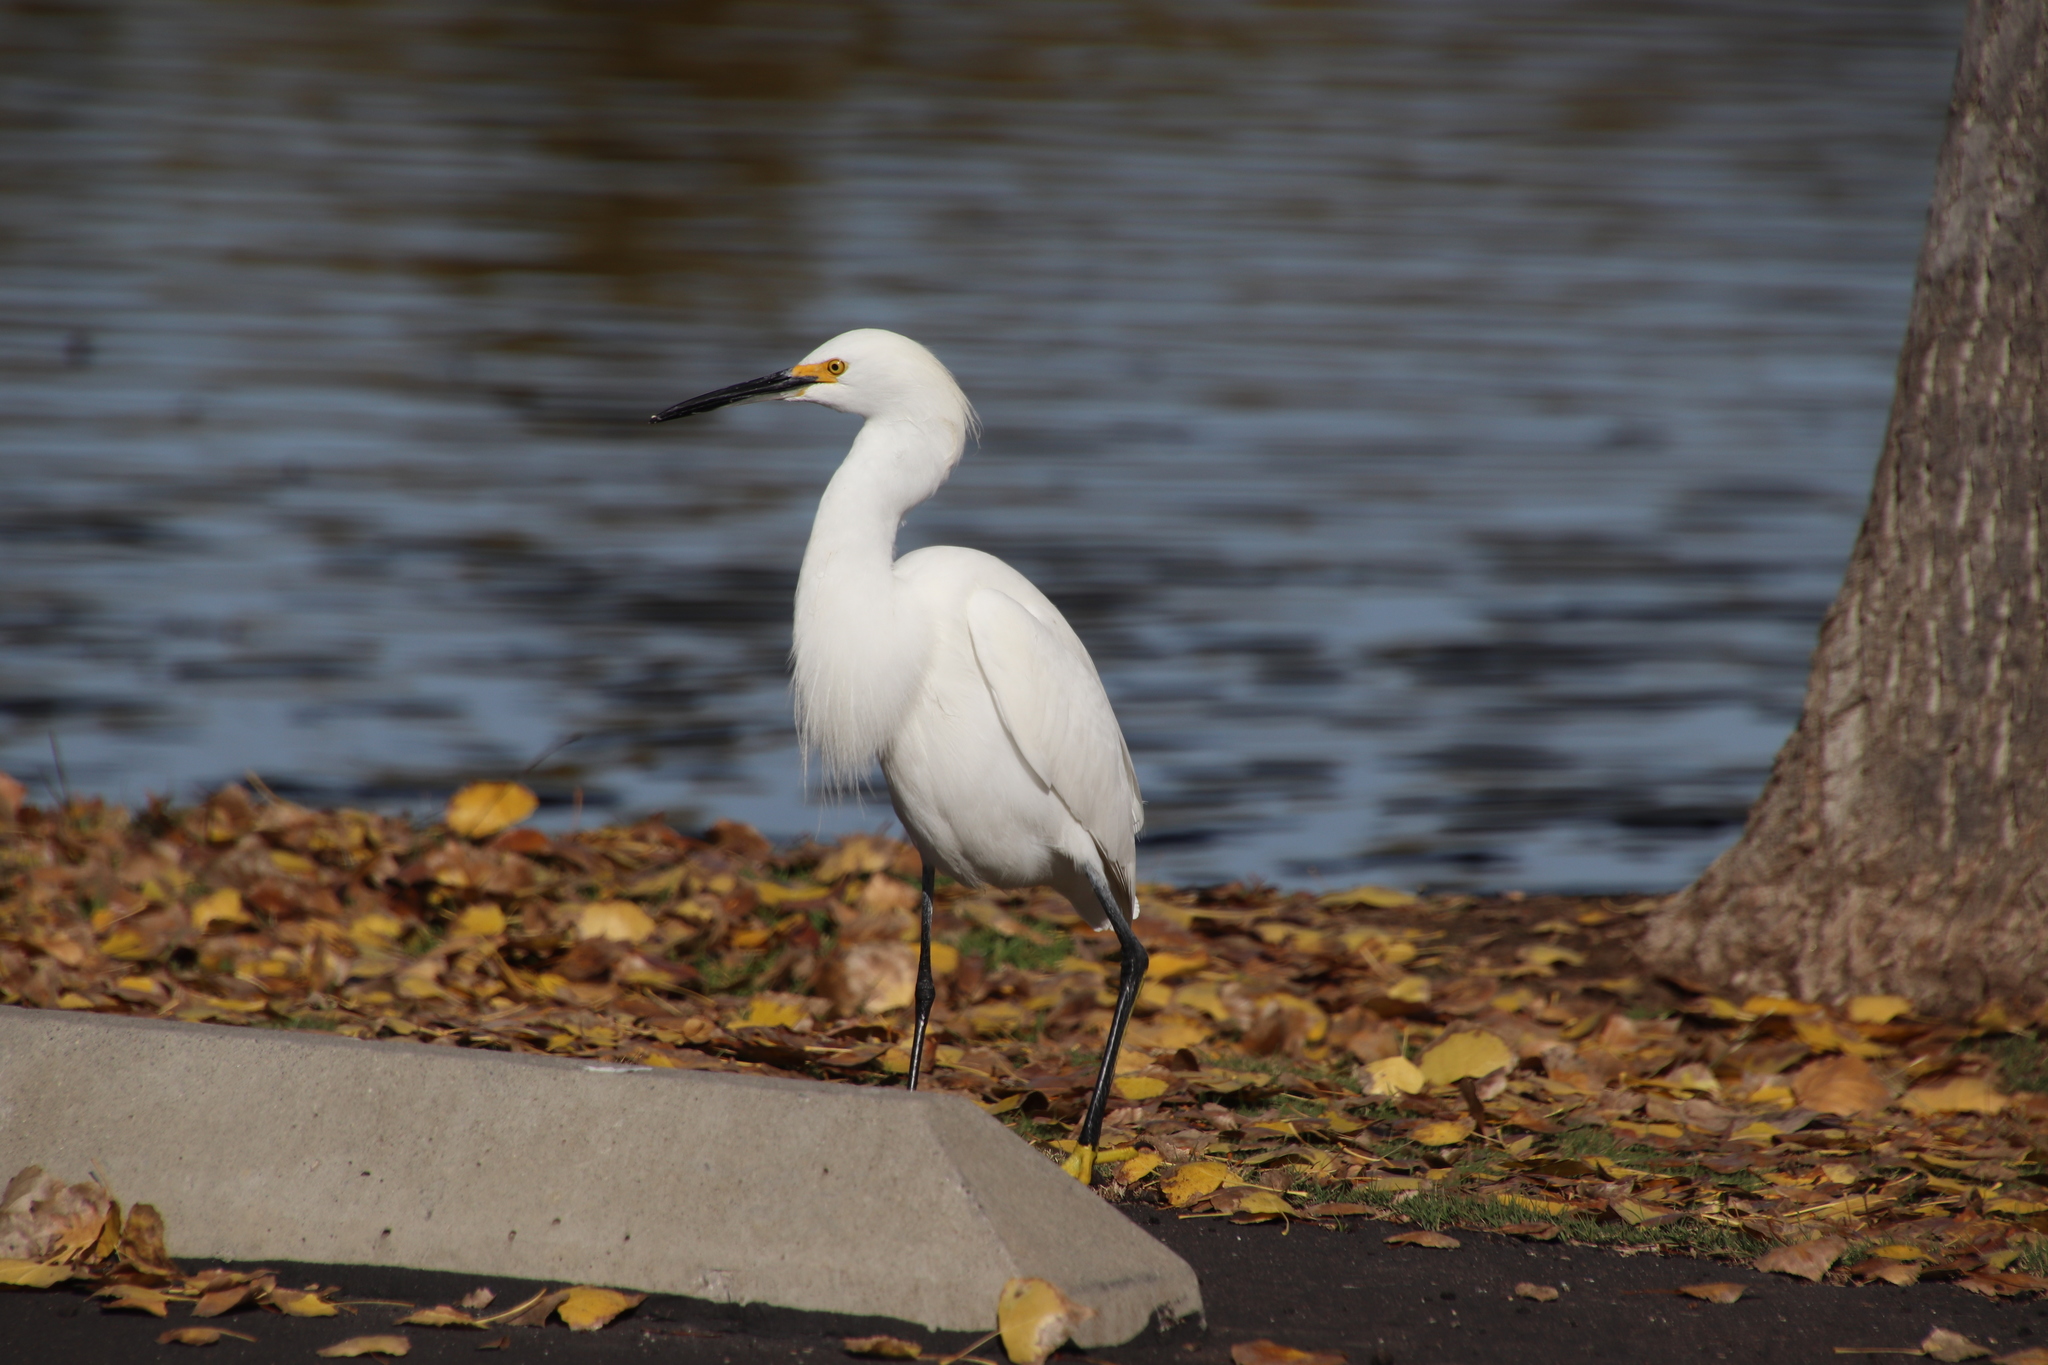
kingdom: Animalia
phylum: Chordata
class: Aves
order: Pelecaniformes
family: Ardeidae
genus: Egretta
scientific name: Egretta thula
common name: Snowy egret
